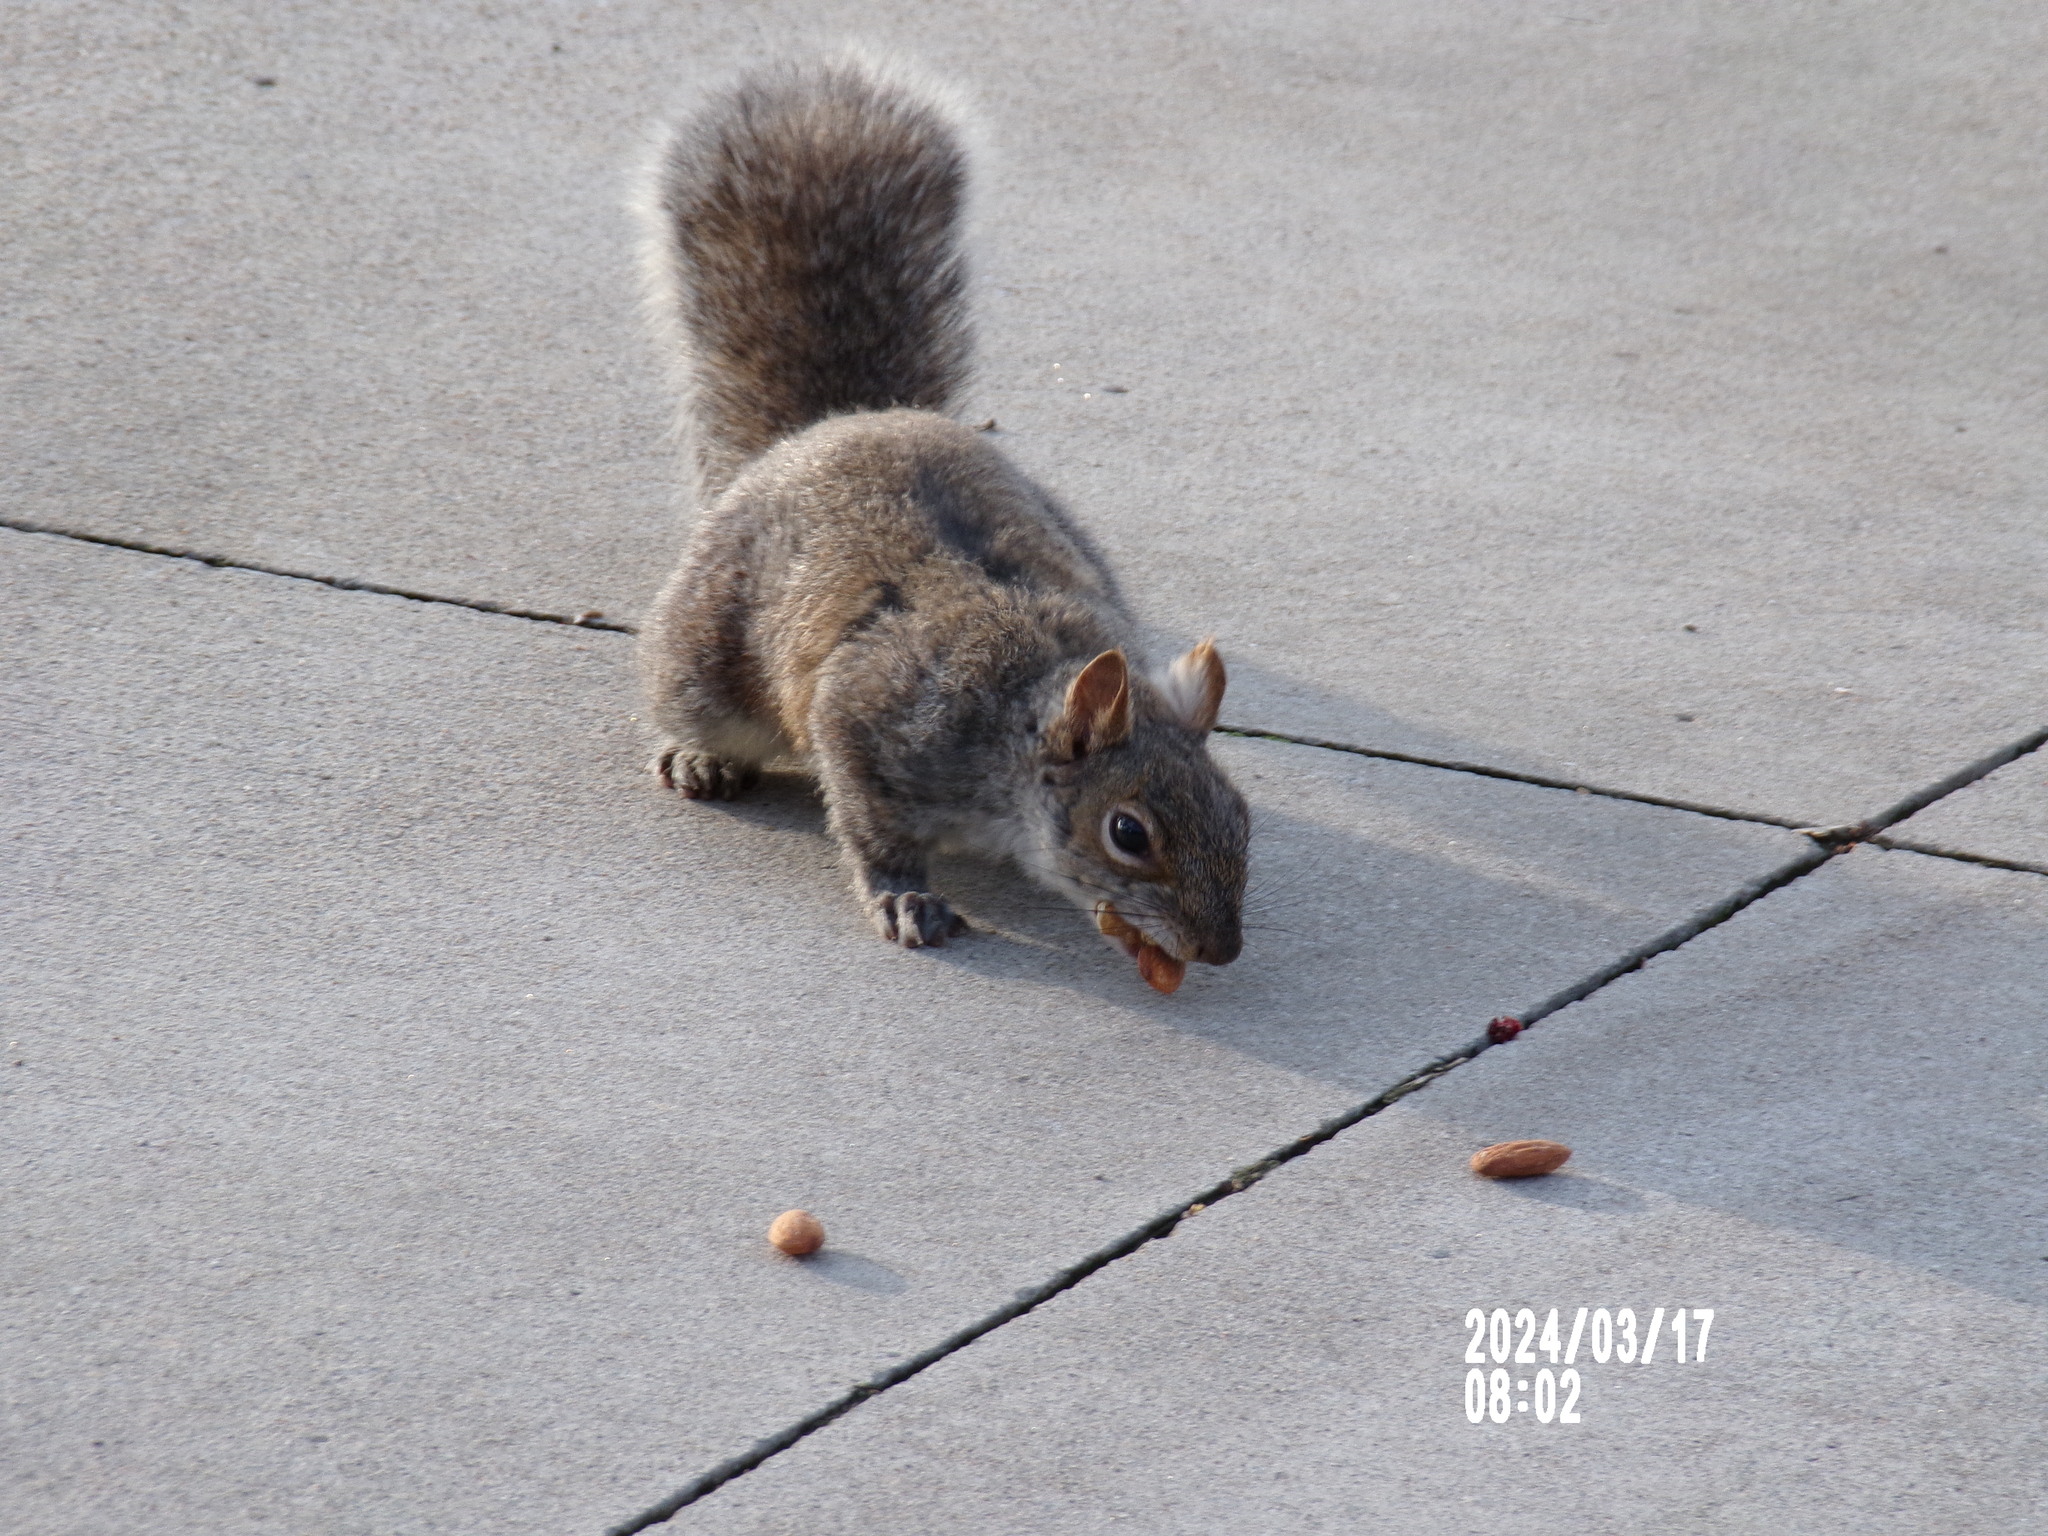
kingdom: Animalia
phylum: Chordata
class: Mammalia
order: Rodentia
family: Sciuridae
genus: Sciurus
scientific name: Sciurus carolinensis
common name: Eastern gray squirrel
